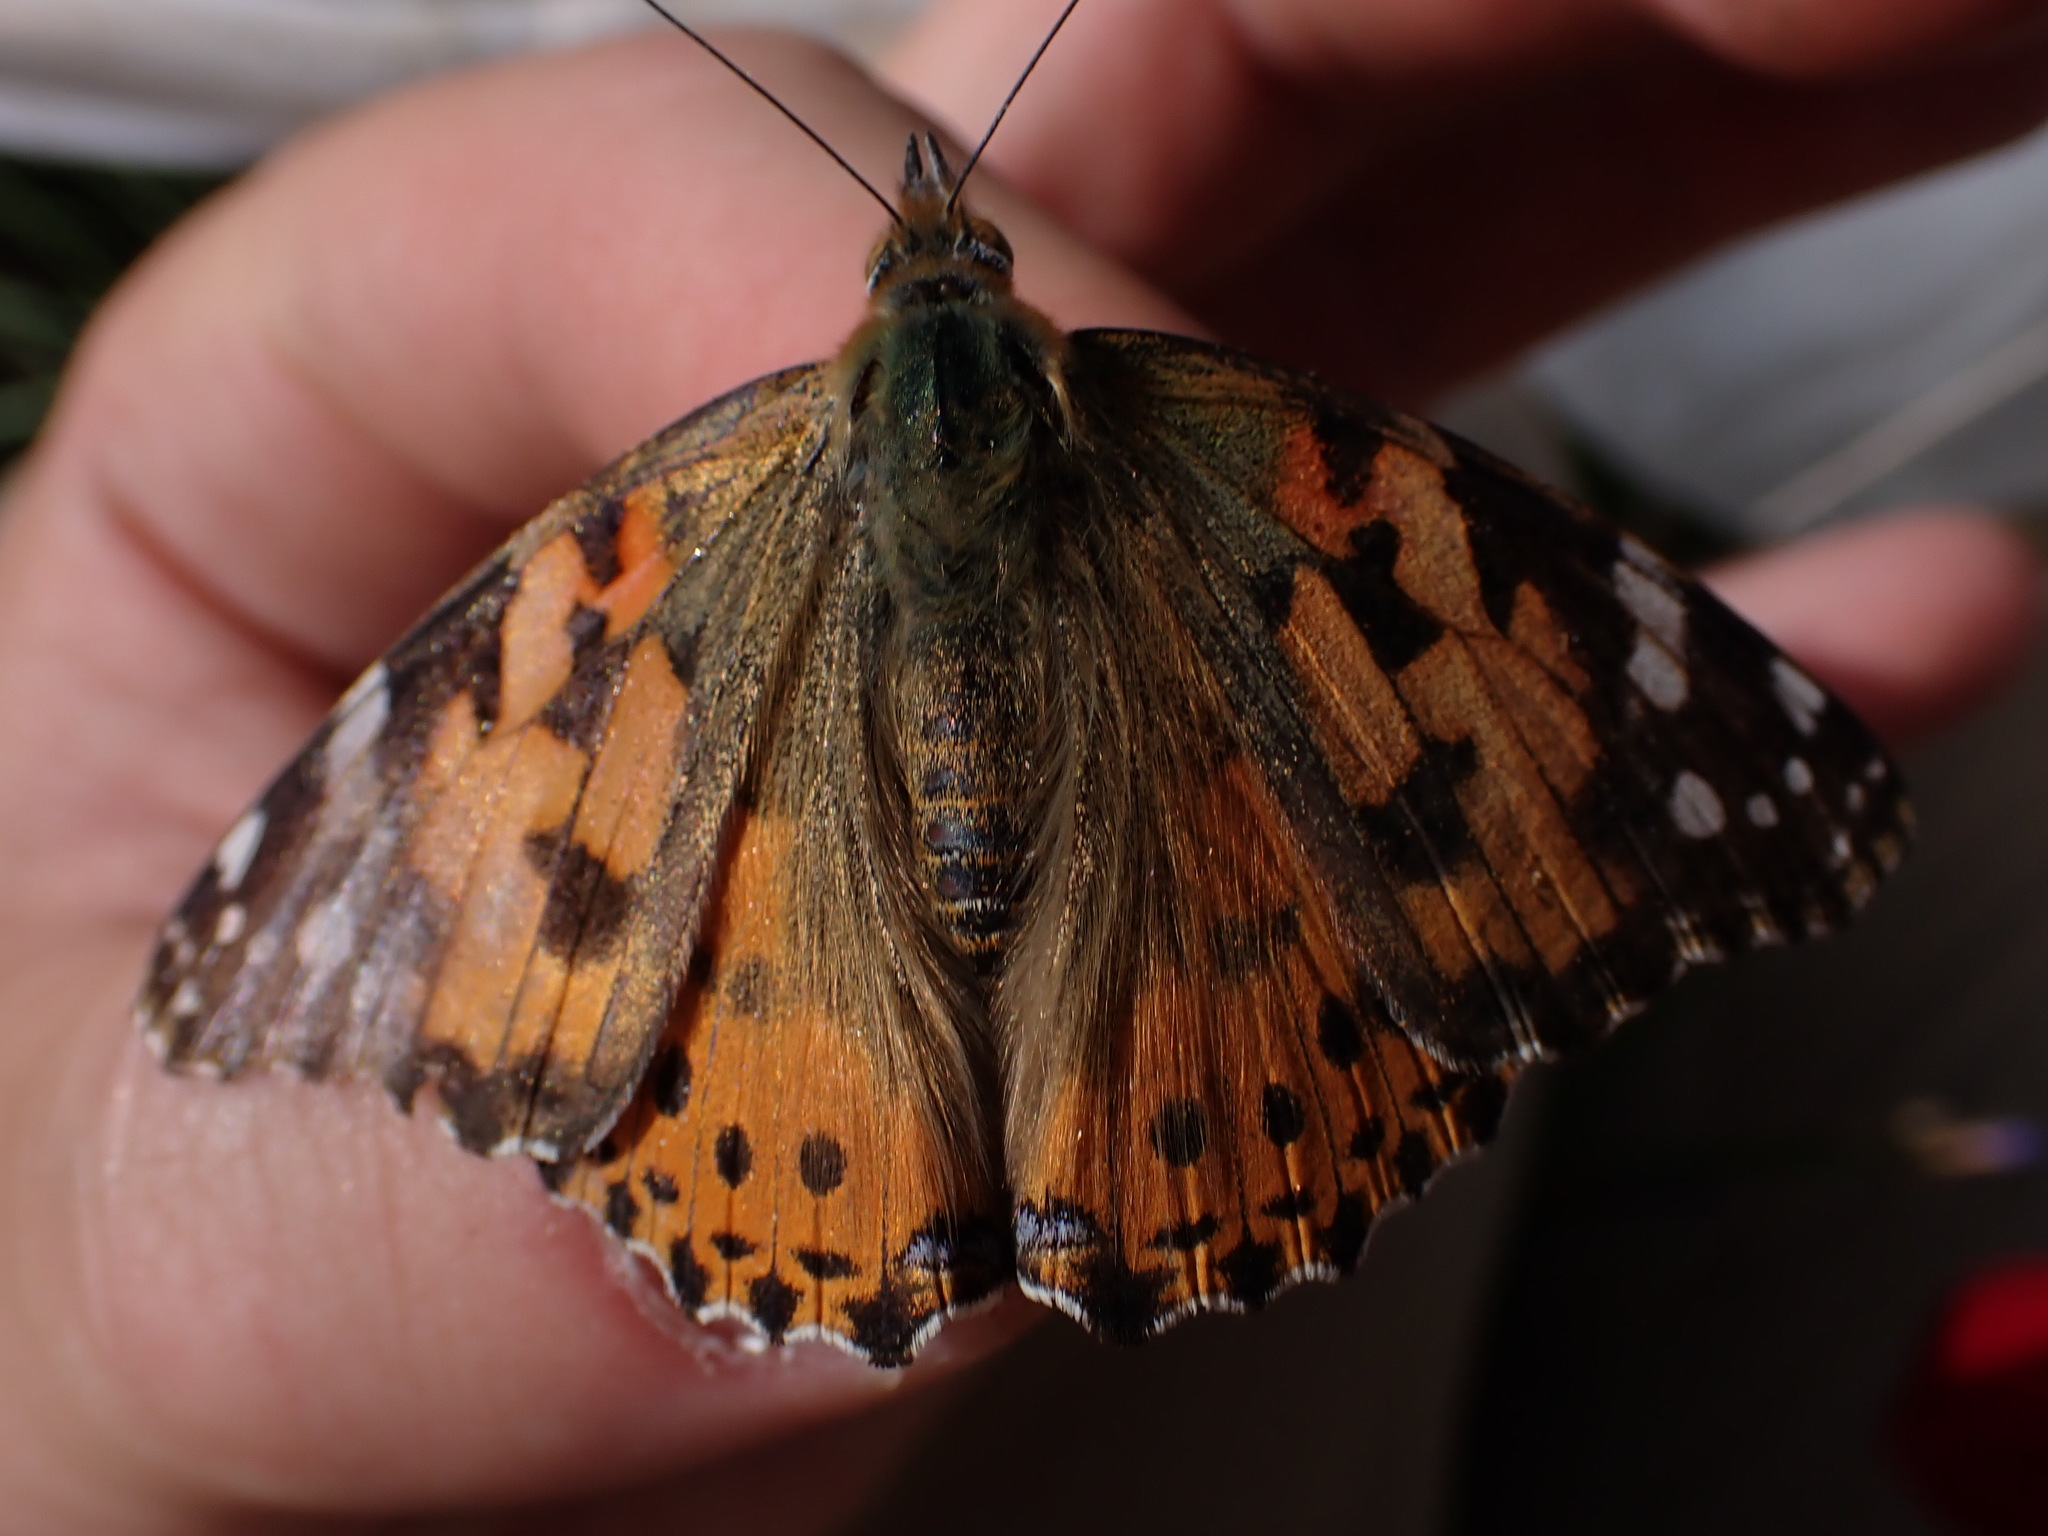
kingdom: Animalia
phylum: Arthropoda
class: Insecta
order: Lepidoptera
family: Nymphalidae
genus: Vanessa
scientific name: Vanessa cardui
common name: Painted lady
